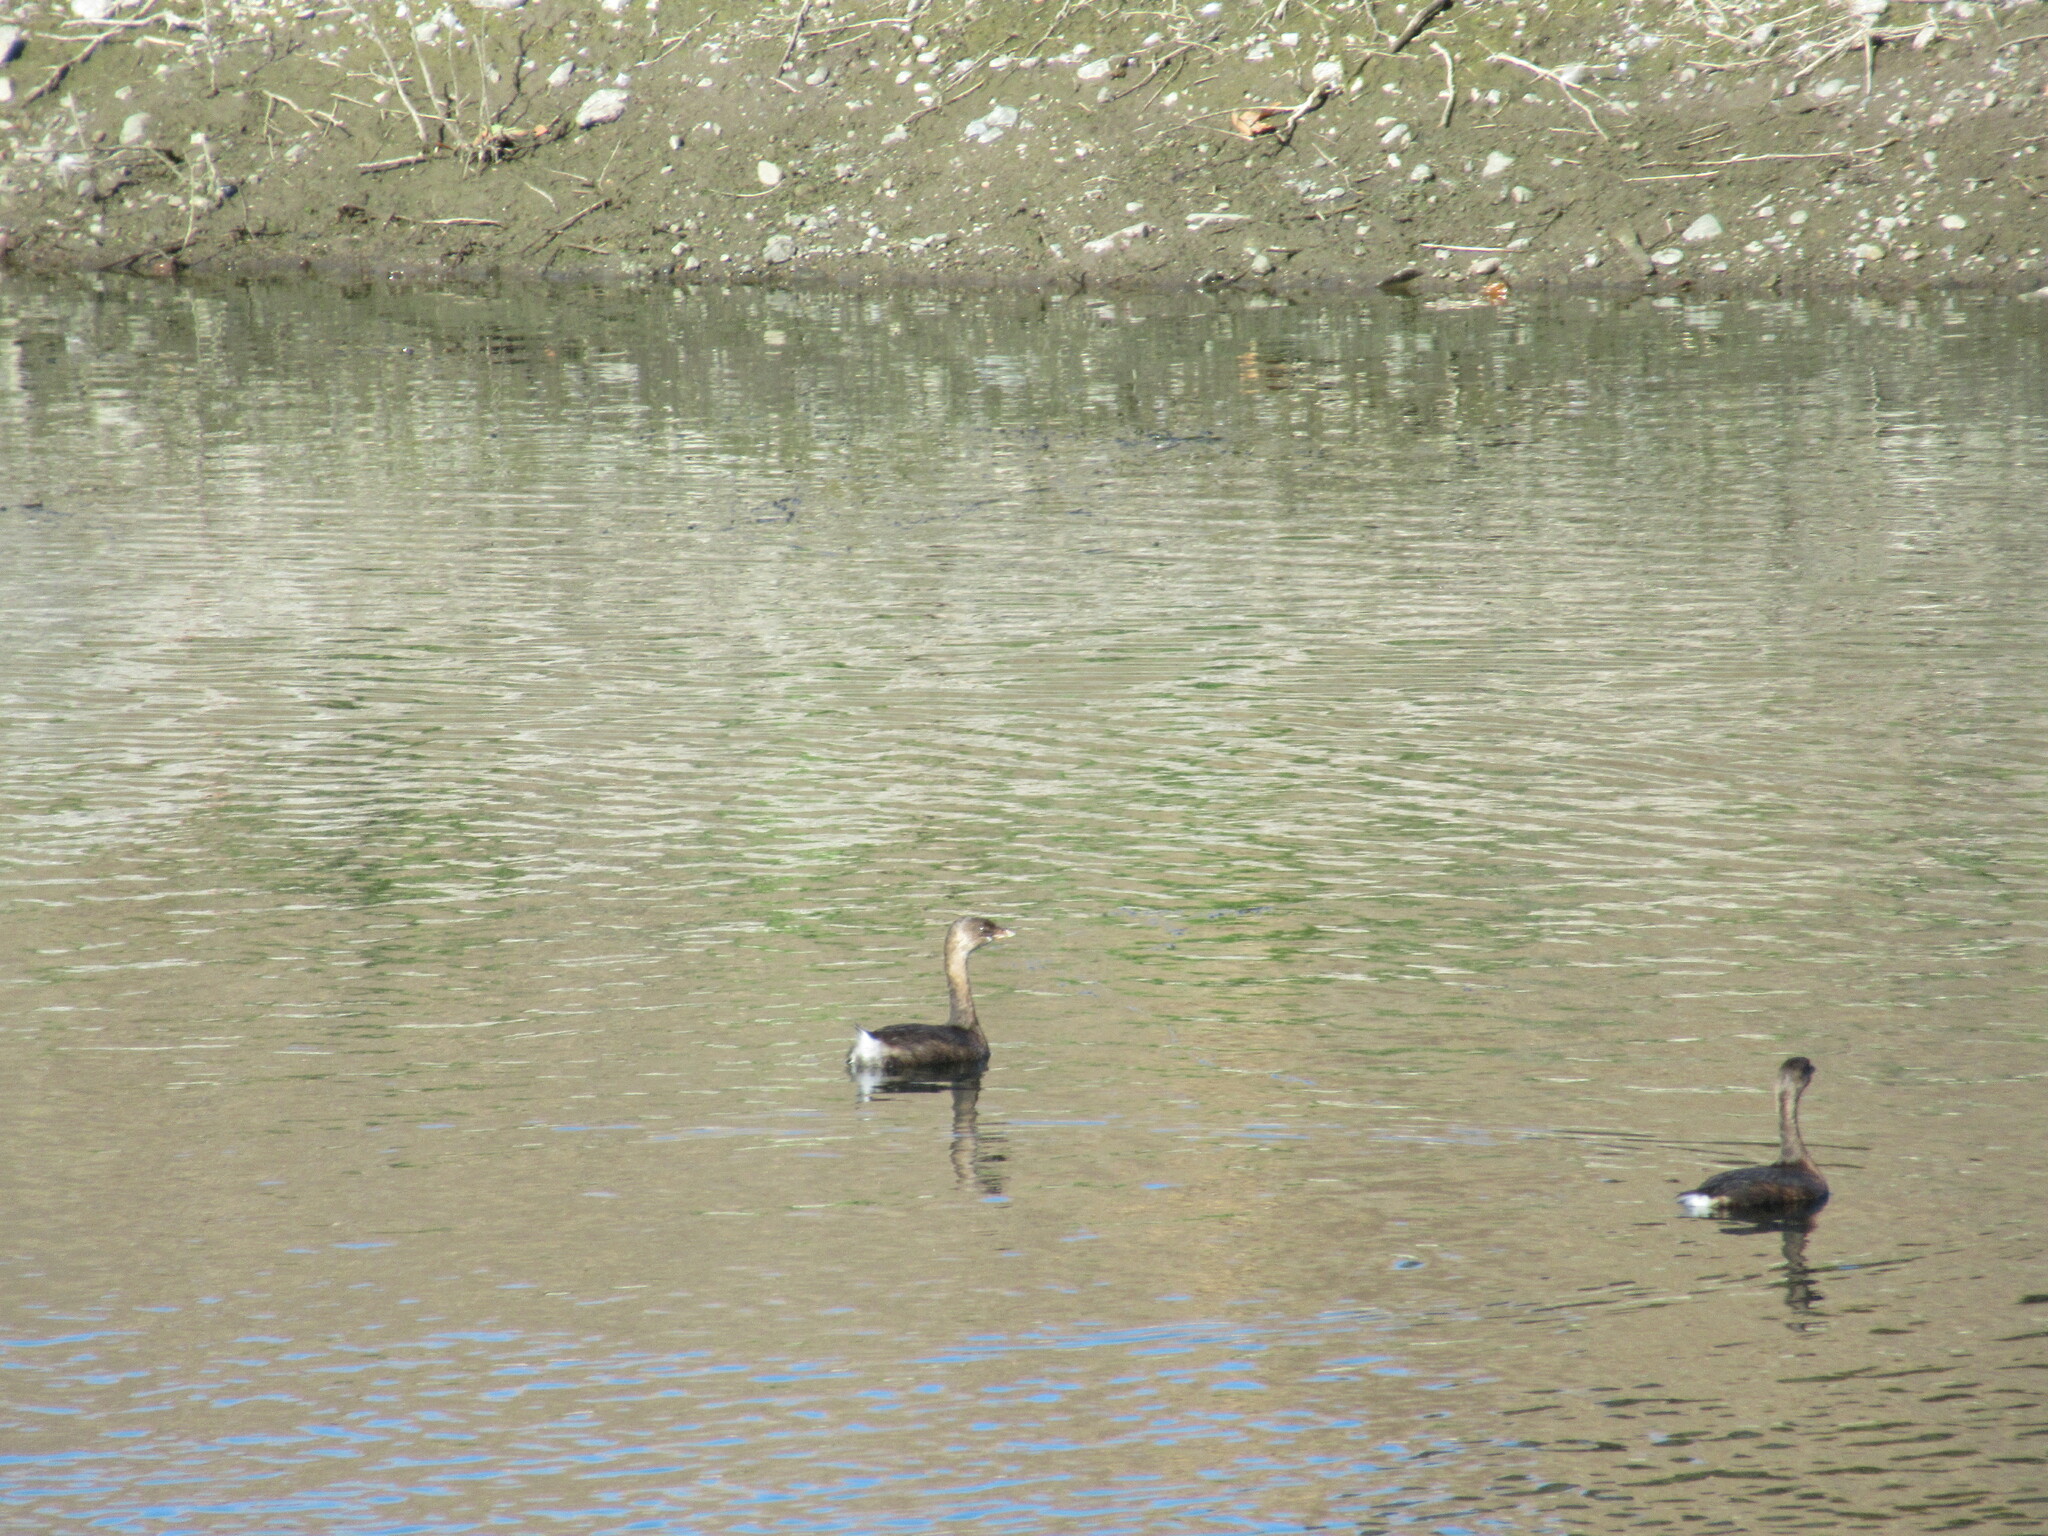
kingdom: Animalia
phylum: Chordata
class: Aves
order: Podicipediformes
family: Podicipedidae
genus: Podilymbus
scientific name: Podilymbus podiceps
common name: Pied-billed grebe
